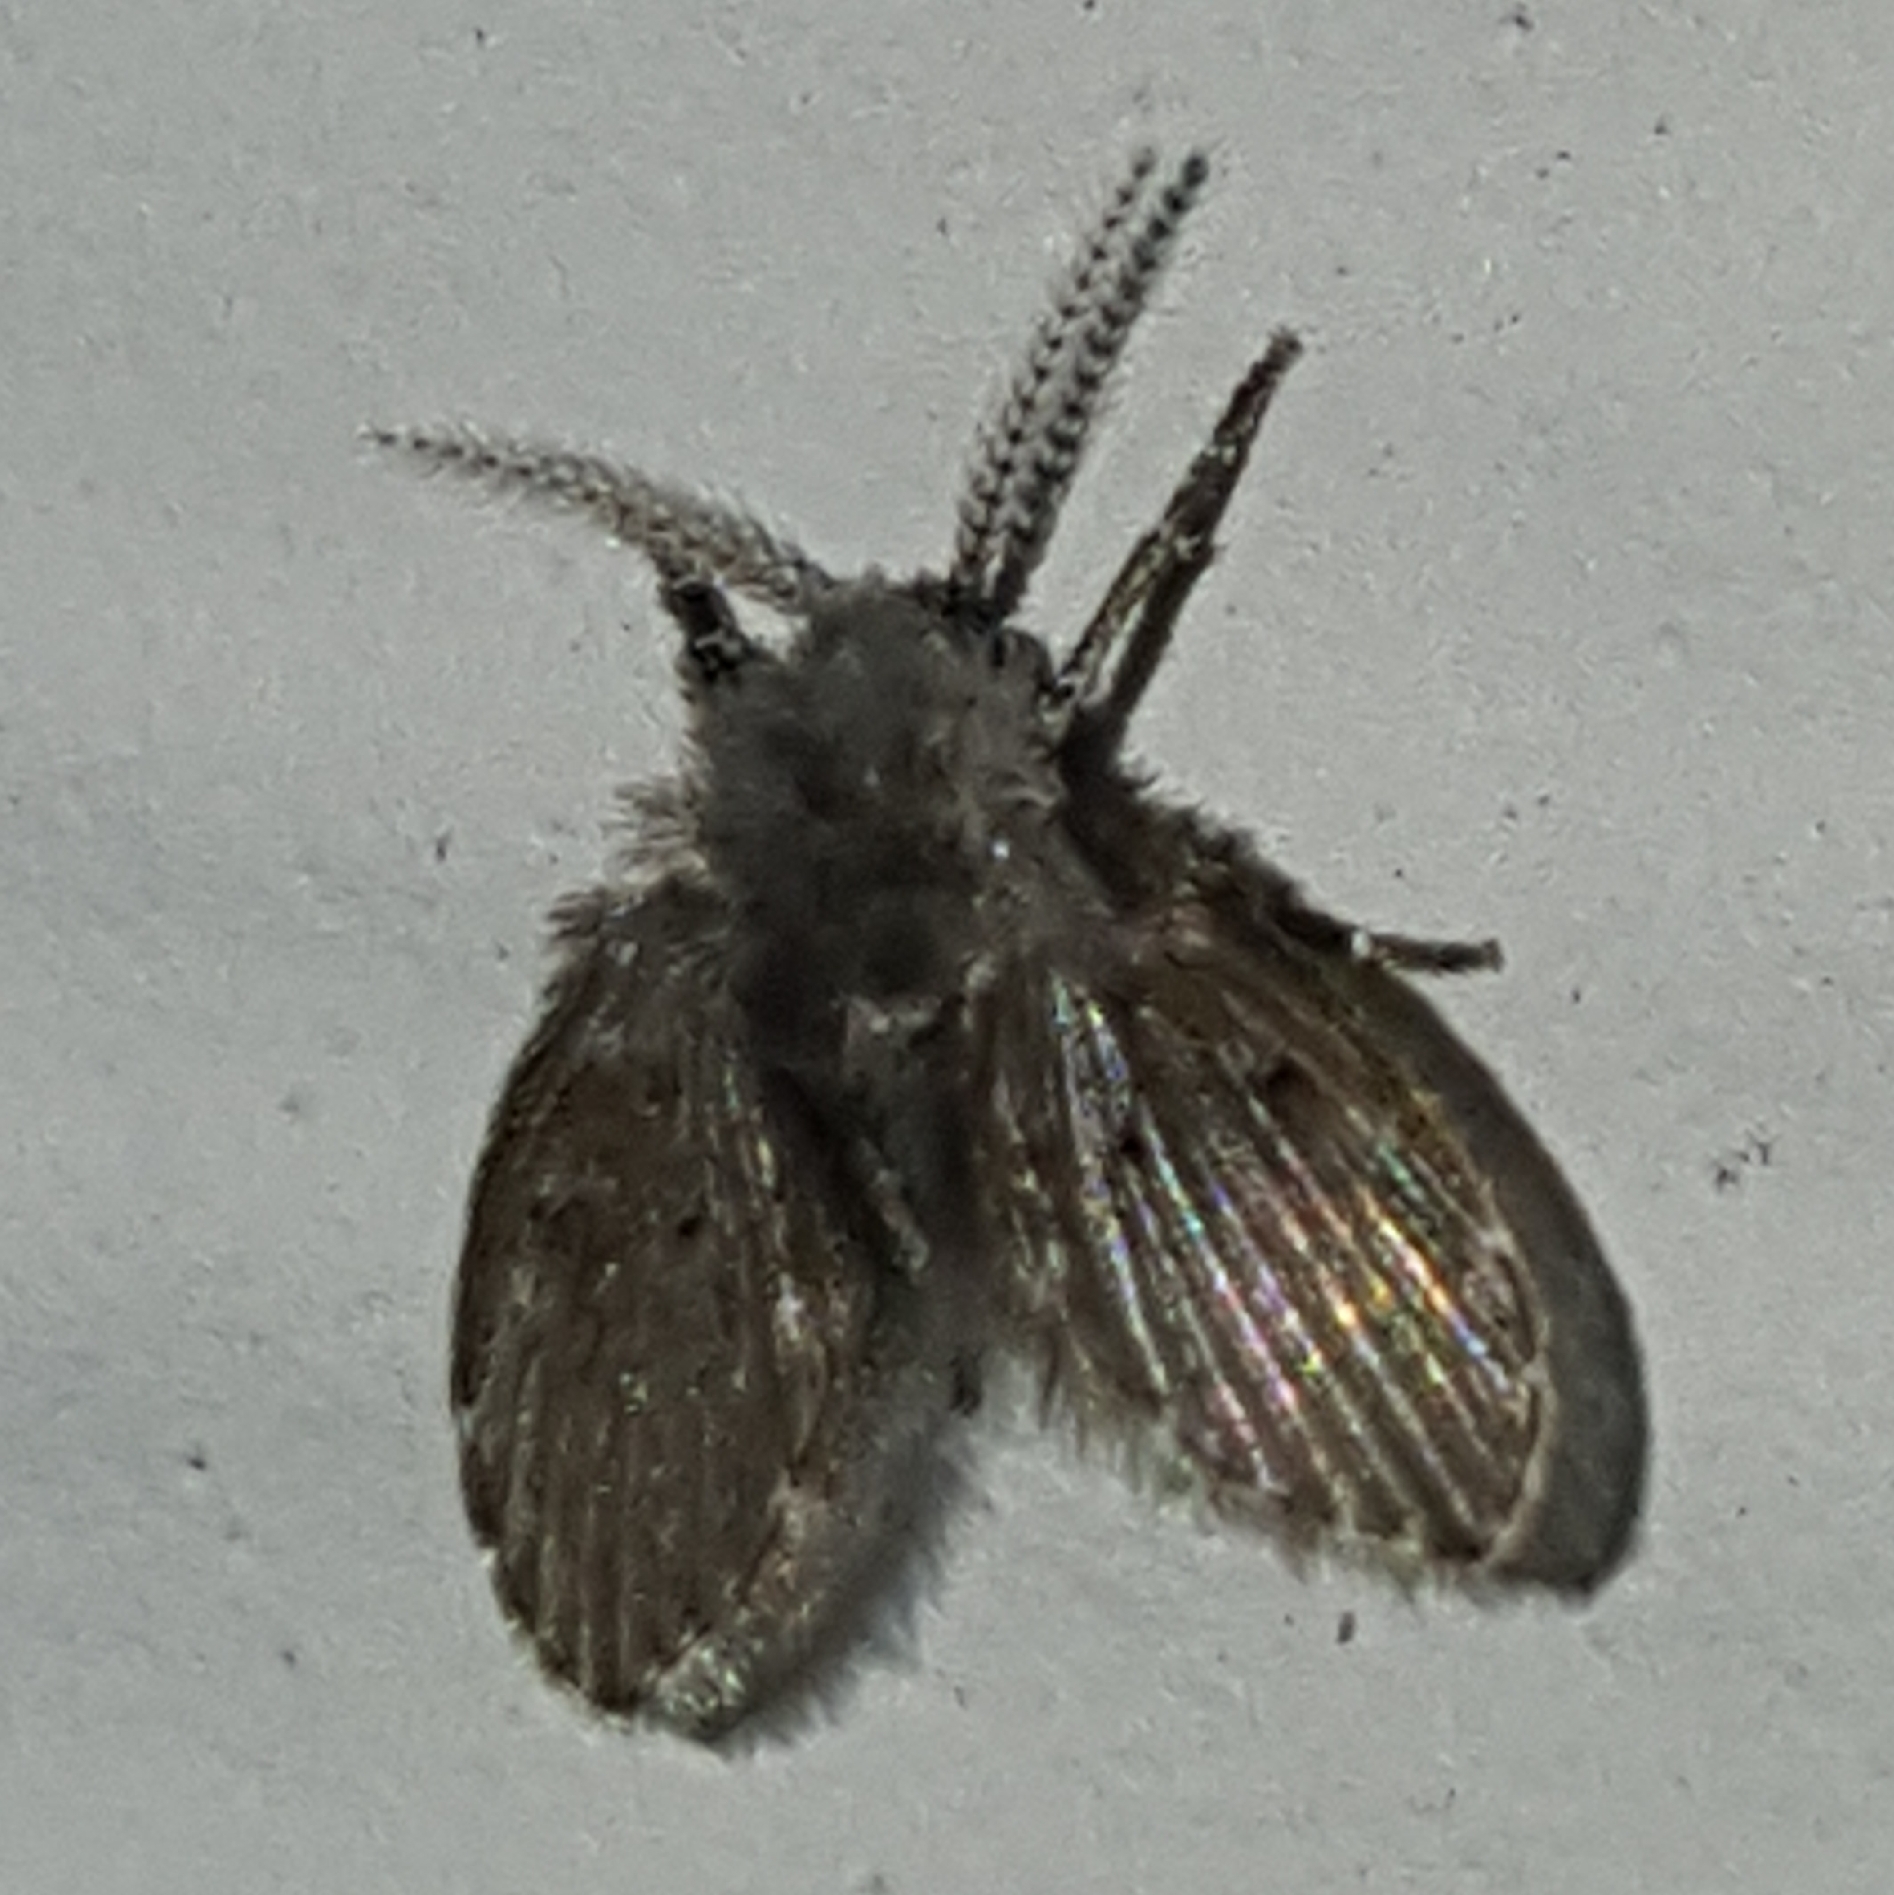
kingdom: Animalia
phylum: Arthropoda
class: Insecta
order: Diptera
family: Psychodidae
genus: Clogmia
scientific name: Clogmia albipunctatus
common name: White-spotted moth fly
